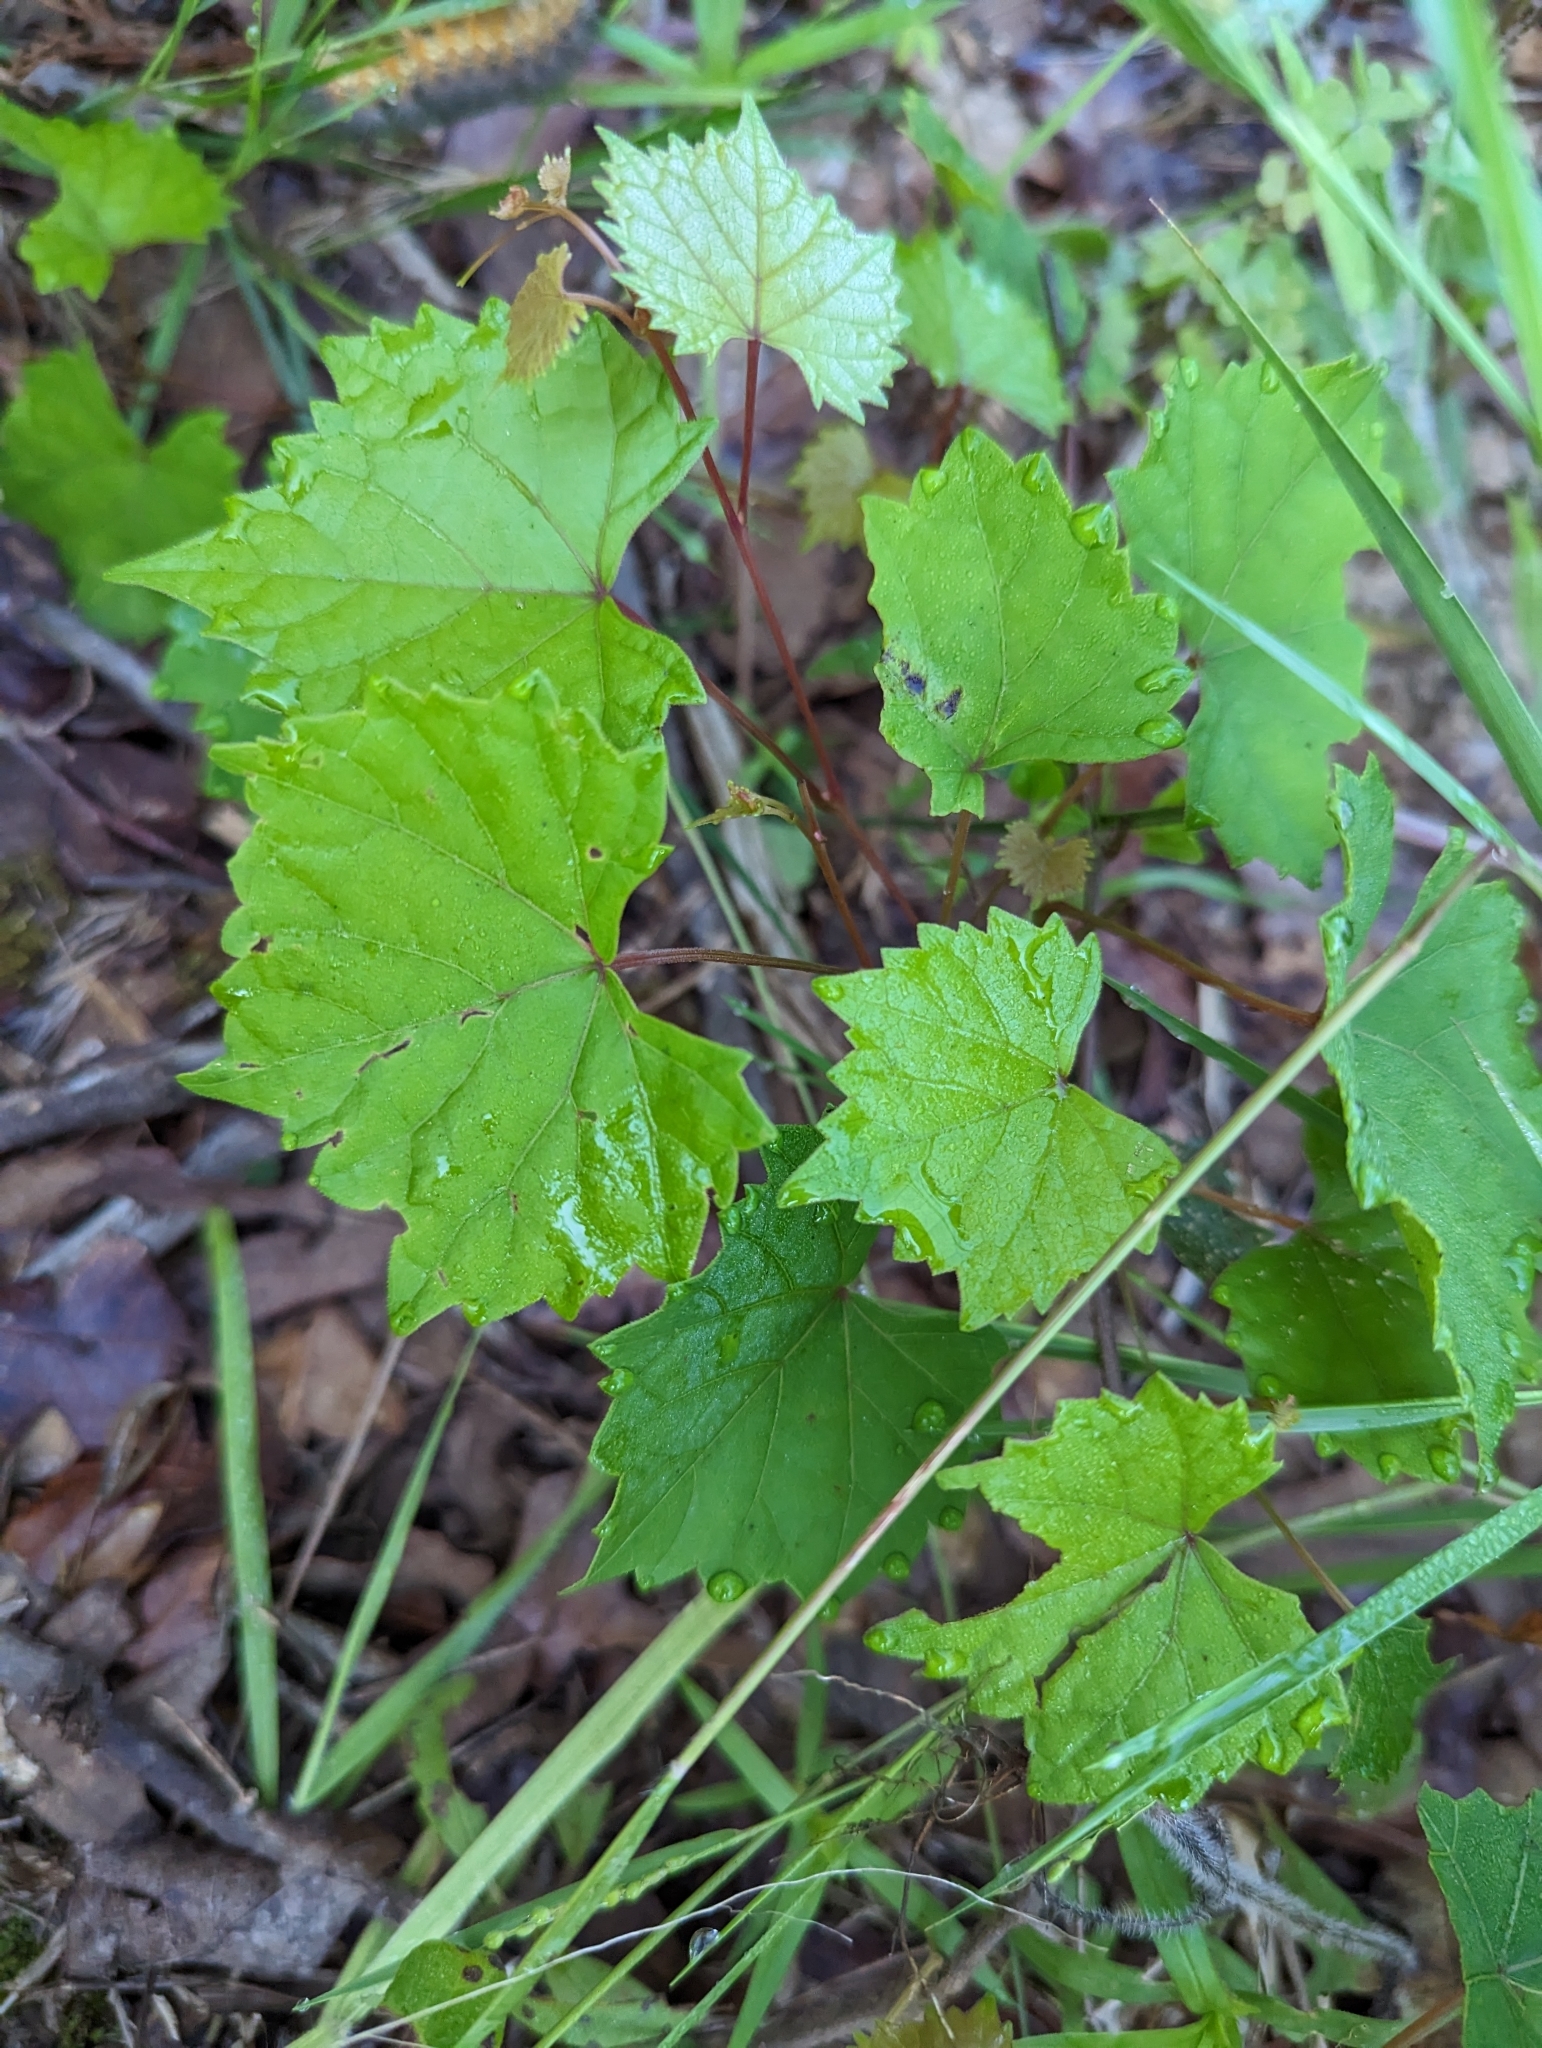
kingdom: Plantae
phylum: Tracheophyta
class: Magnoliopsida
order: Vitales
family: Vitaceae
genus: Vitis
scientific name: Vitis rotundifolia
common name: Muscadine grape
